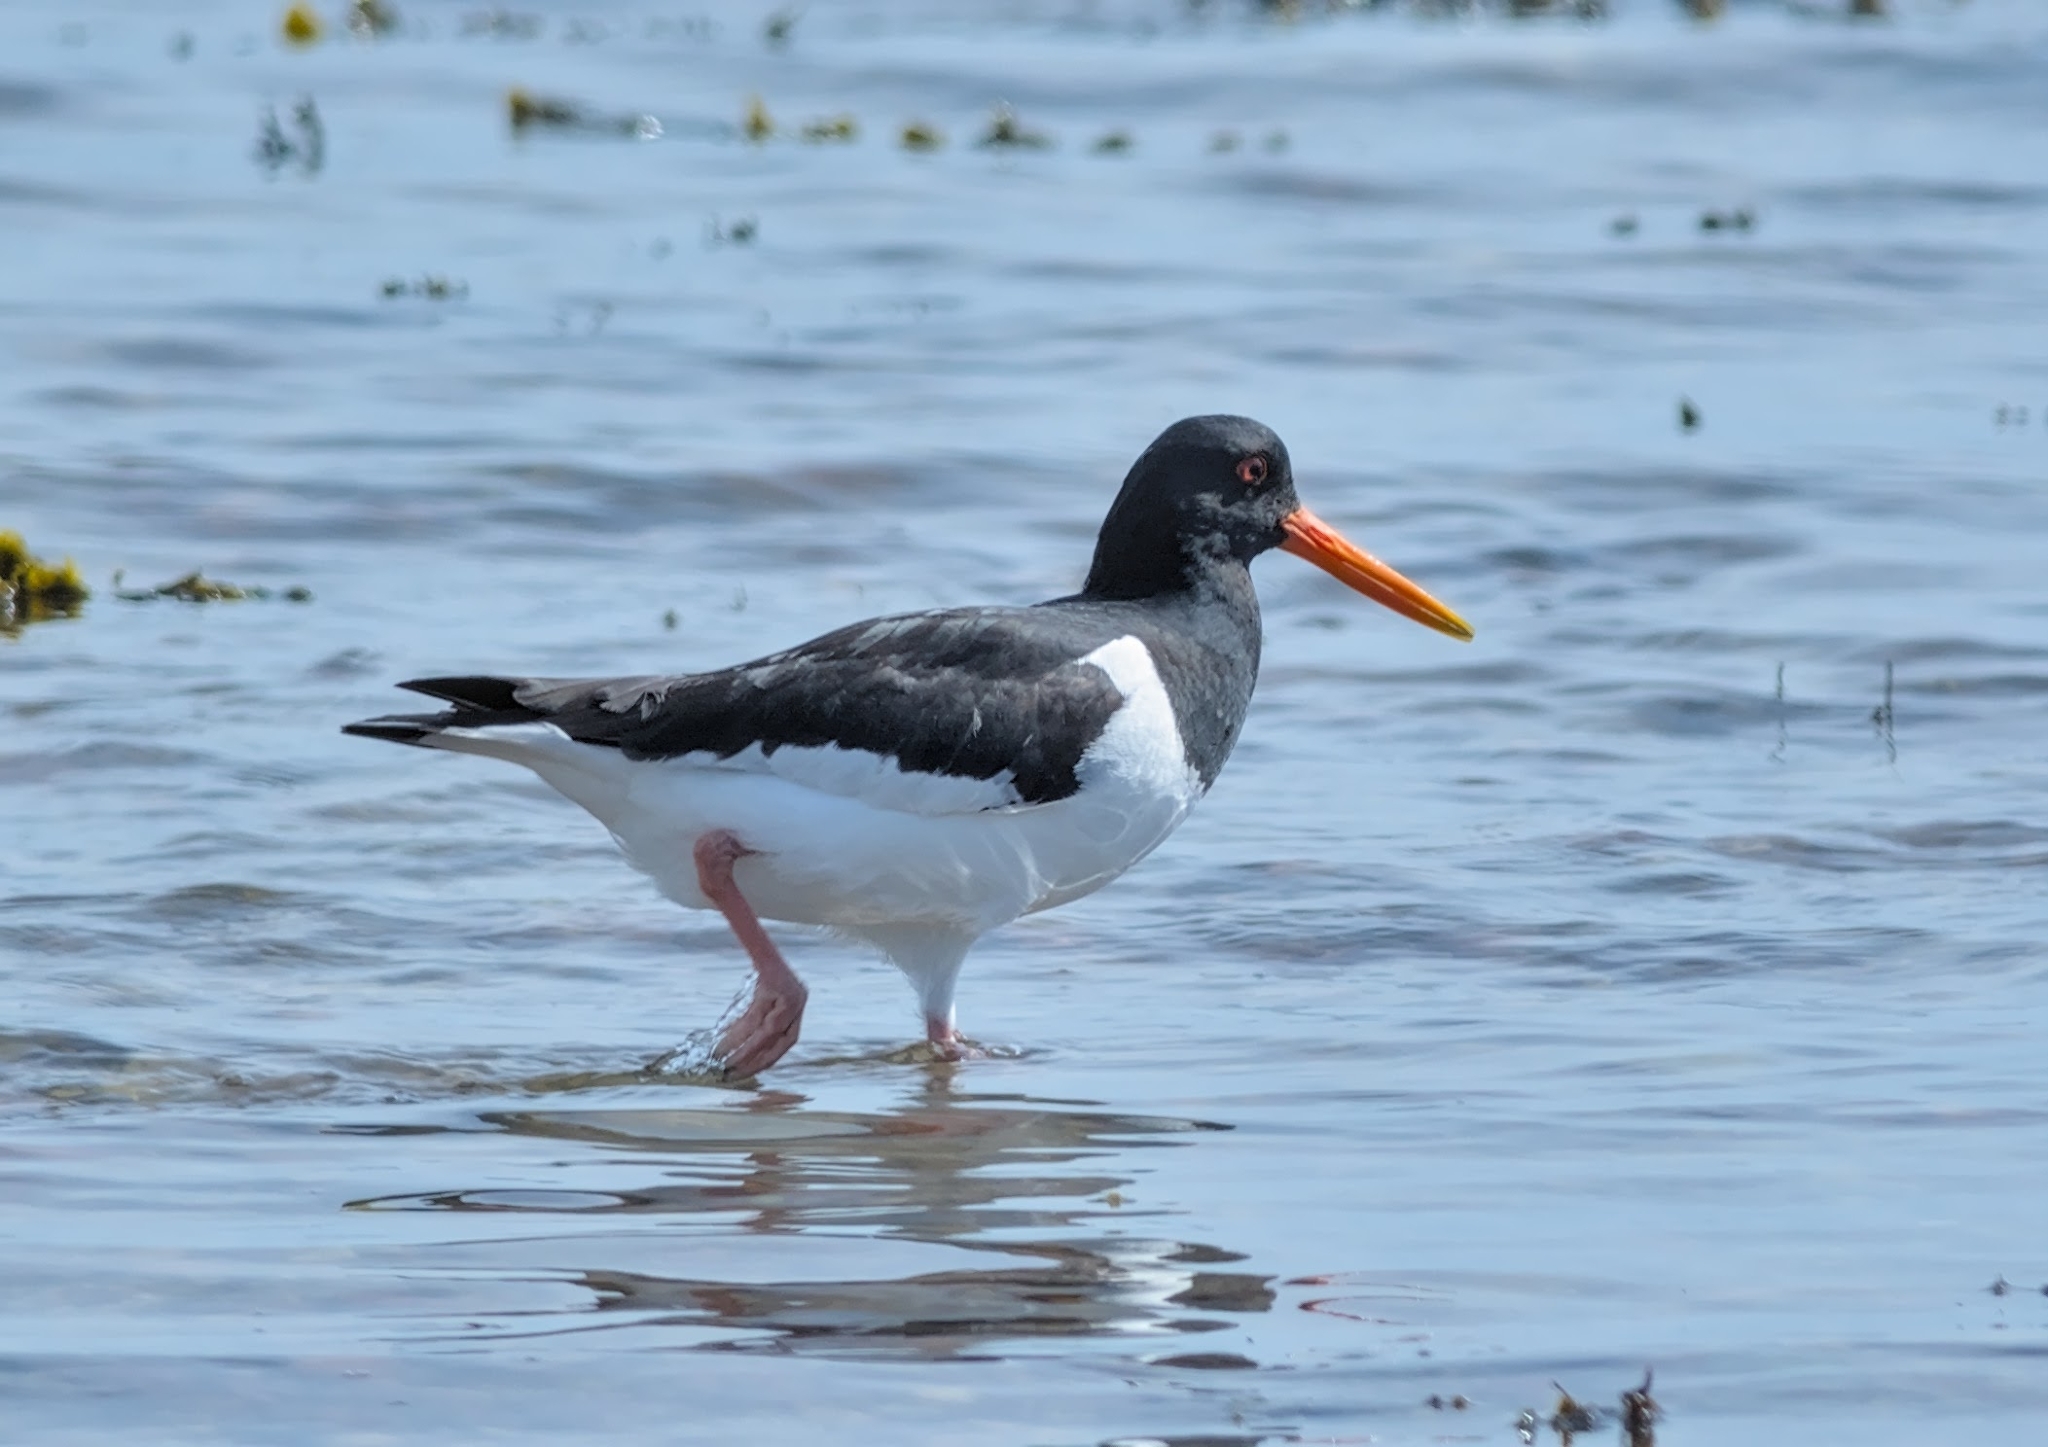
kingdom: Animalia
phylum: Chordata
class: Aves
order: Charadriiformes
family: Haematopodidae
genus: Haematopus
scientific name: Haematopus ostralegus
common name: Eurasian oystercatcher
